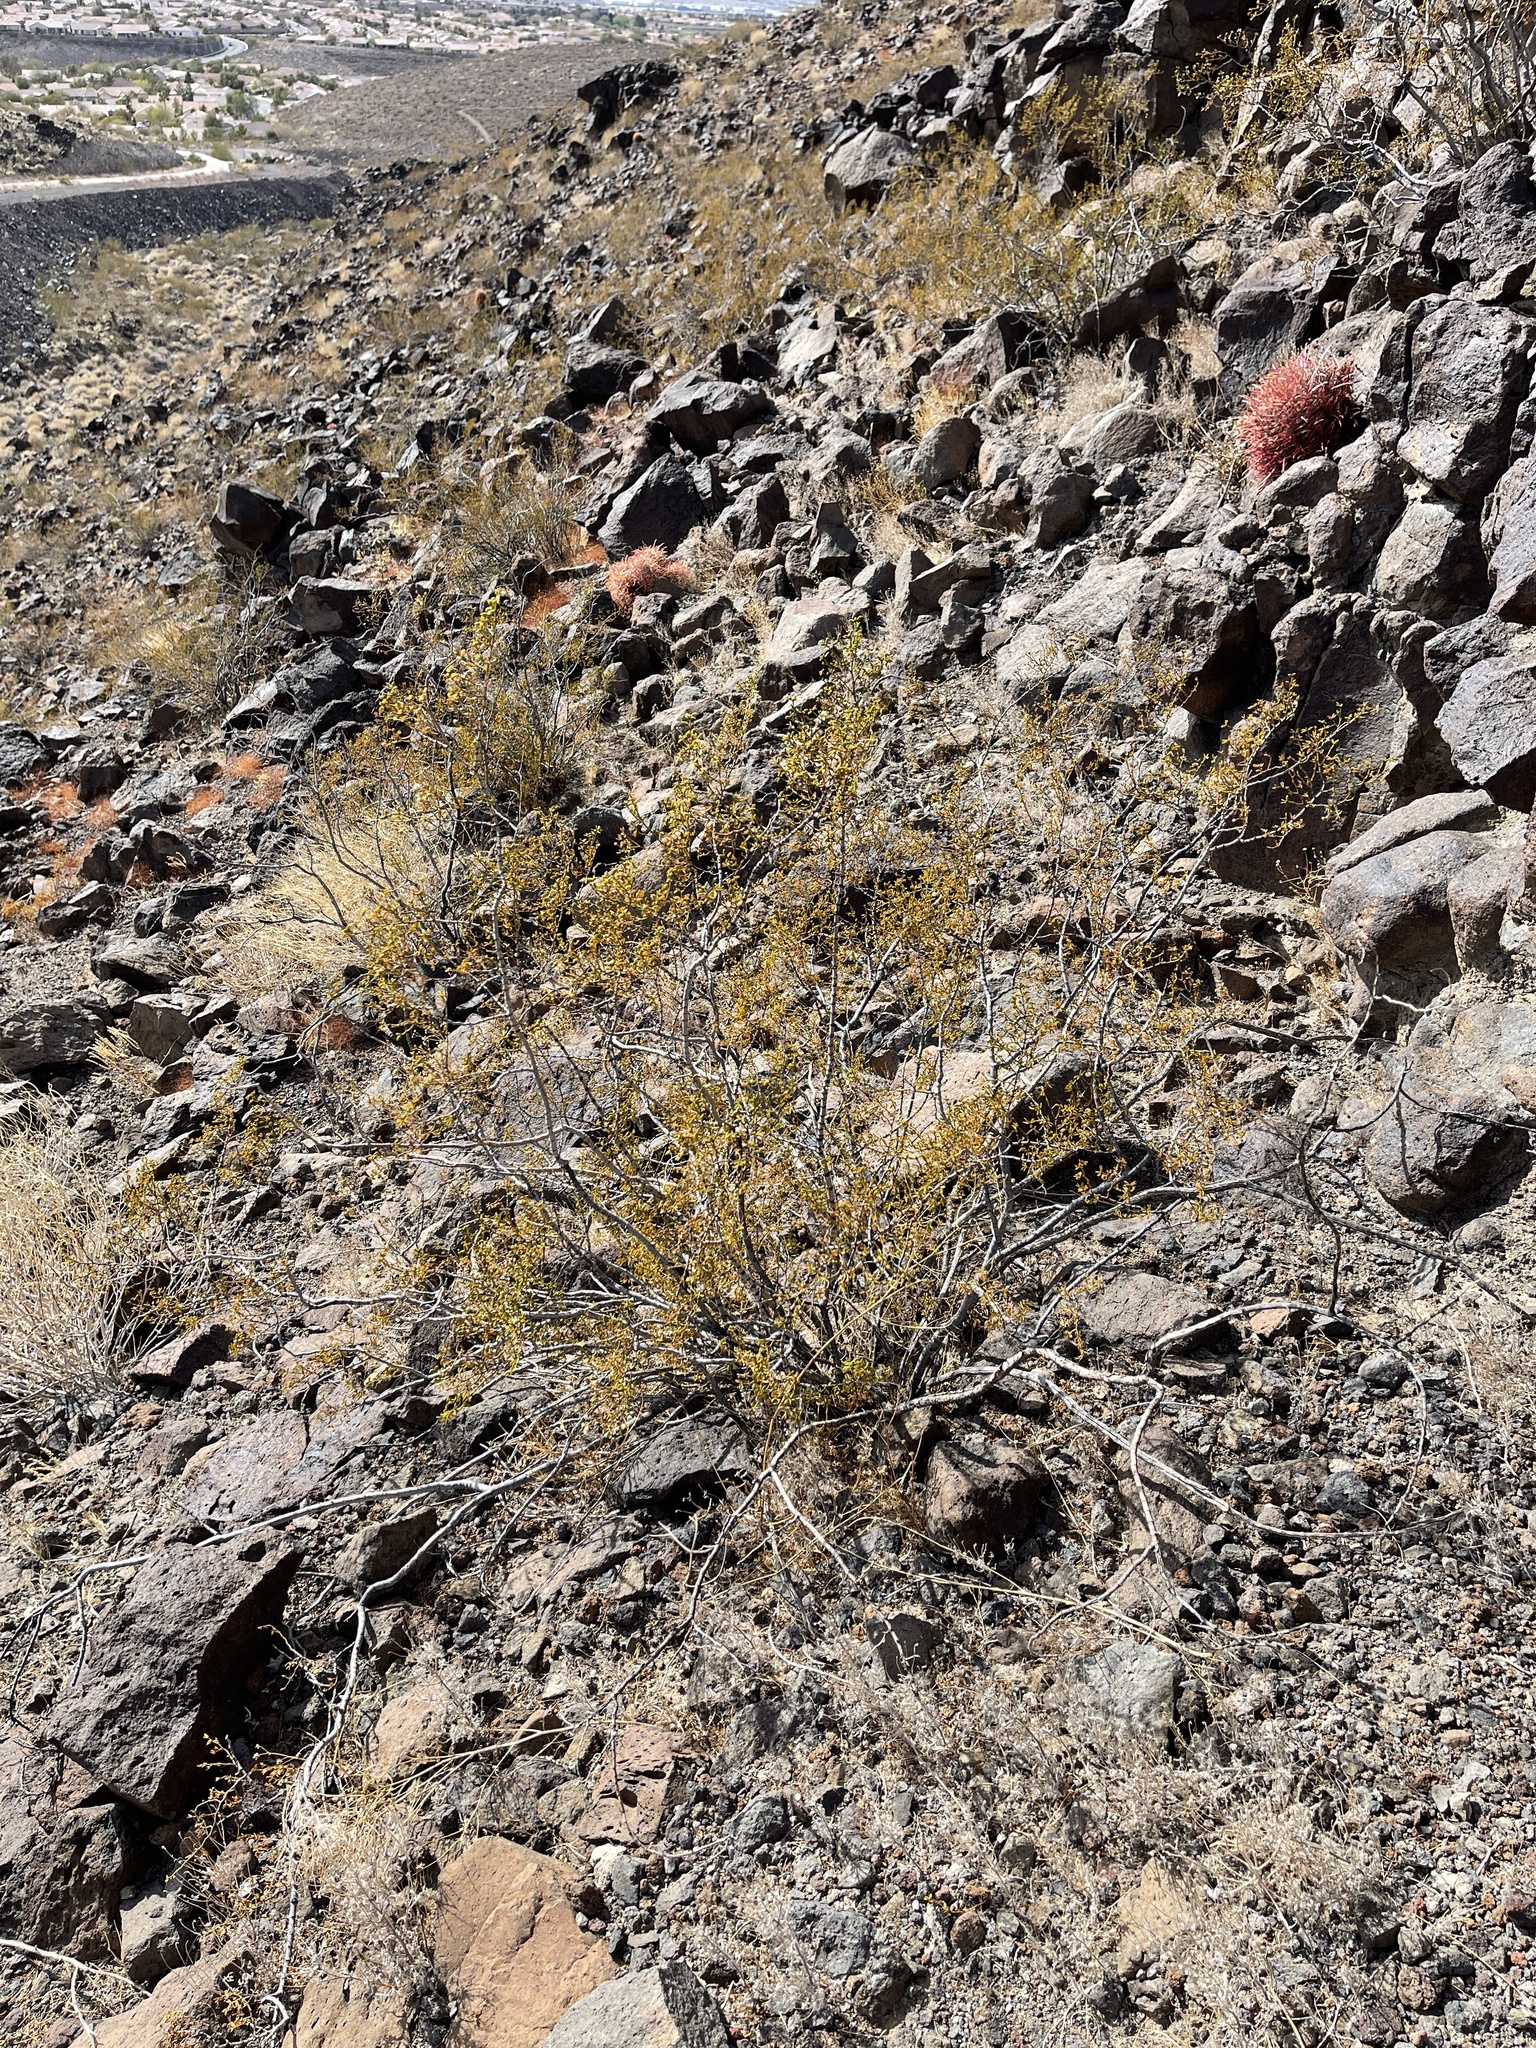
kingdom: Plantae
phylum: Tracheophyta
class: Magnoliopsida
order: Zygophyllales
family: Zygophyllaceae
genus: Larrea
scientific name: Larrea tridentata
